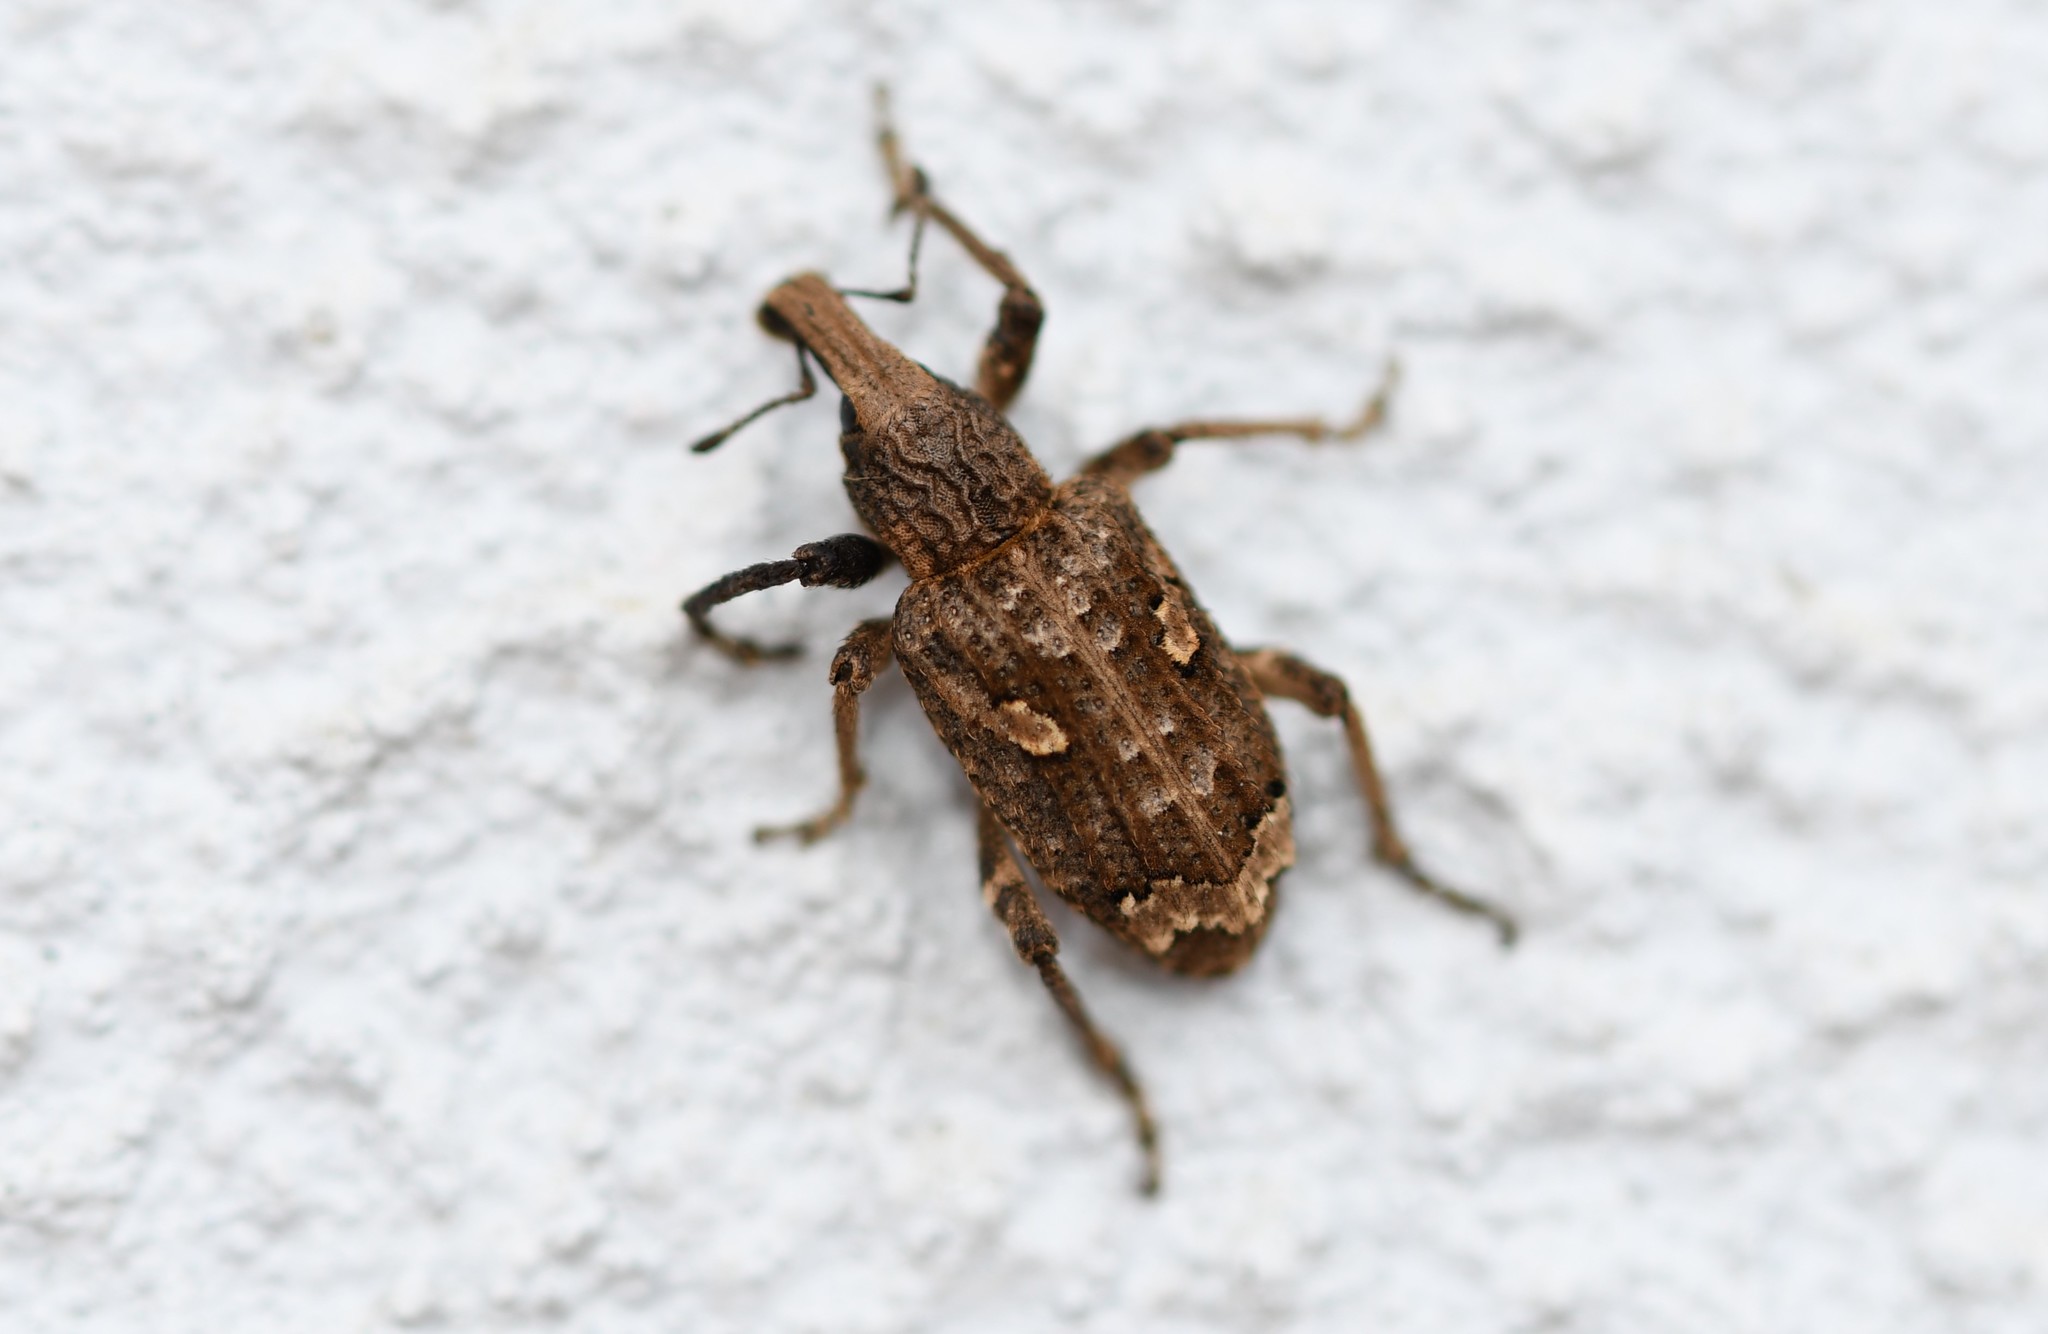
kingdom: Animalia
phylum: Arthropoda
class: Insecta
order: Coleoptera
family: Curculionidae
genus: Rhytideres
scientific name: Rhytideres plicatus
